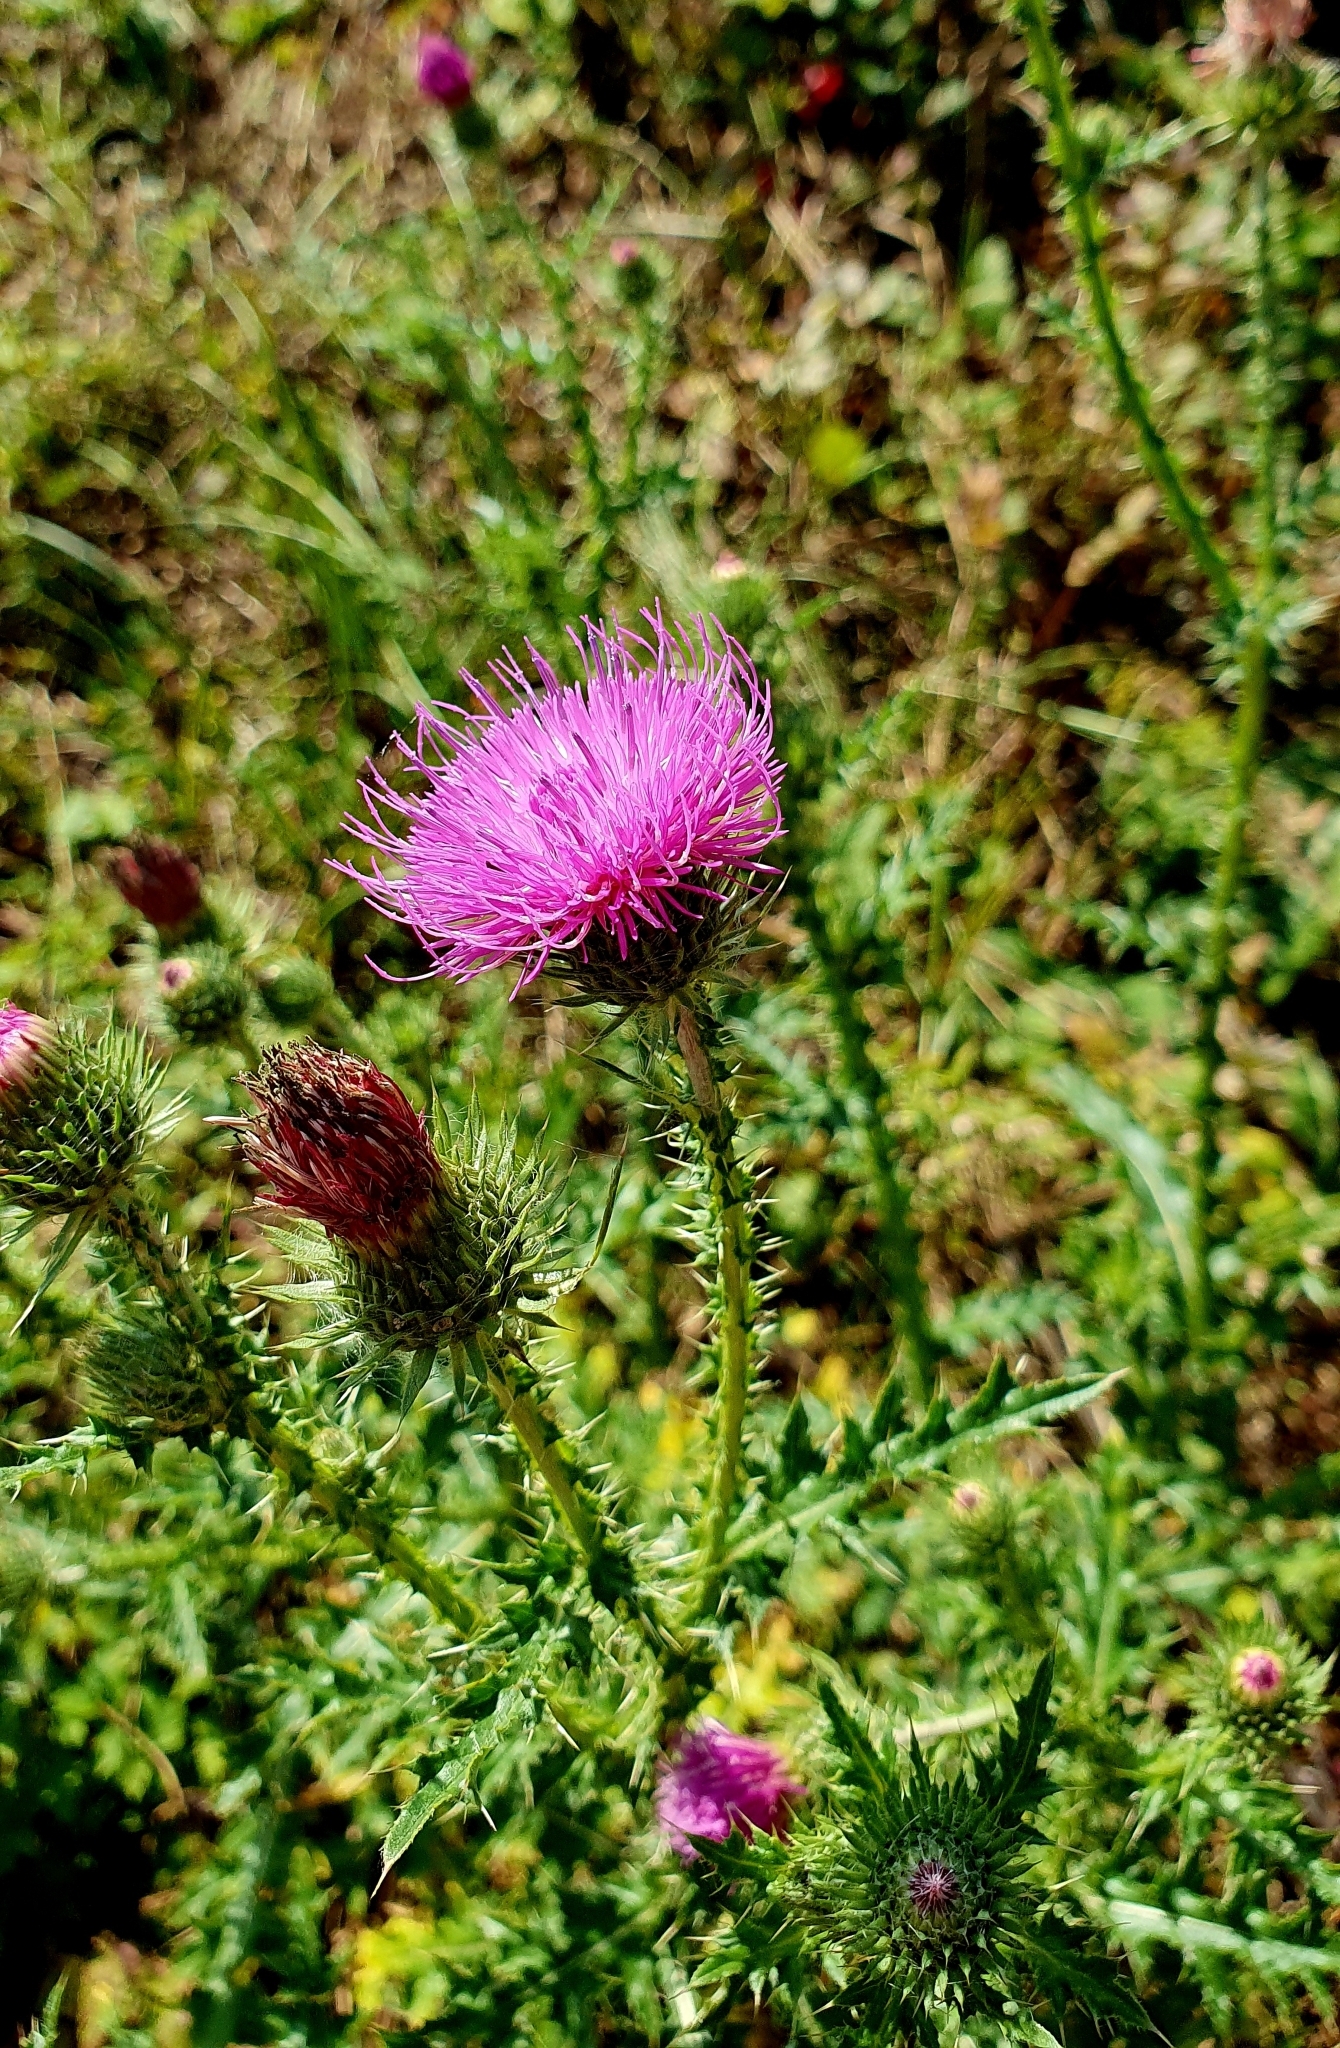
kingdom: Plantae
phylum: Tracheophyta
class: Magnoliopsida
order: Asterales
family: Asteraceae
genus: Carduus
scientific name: Carduus acanthoides
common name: Plumeless thistle
